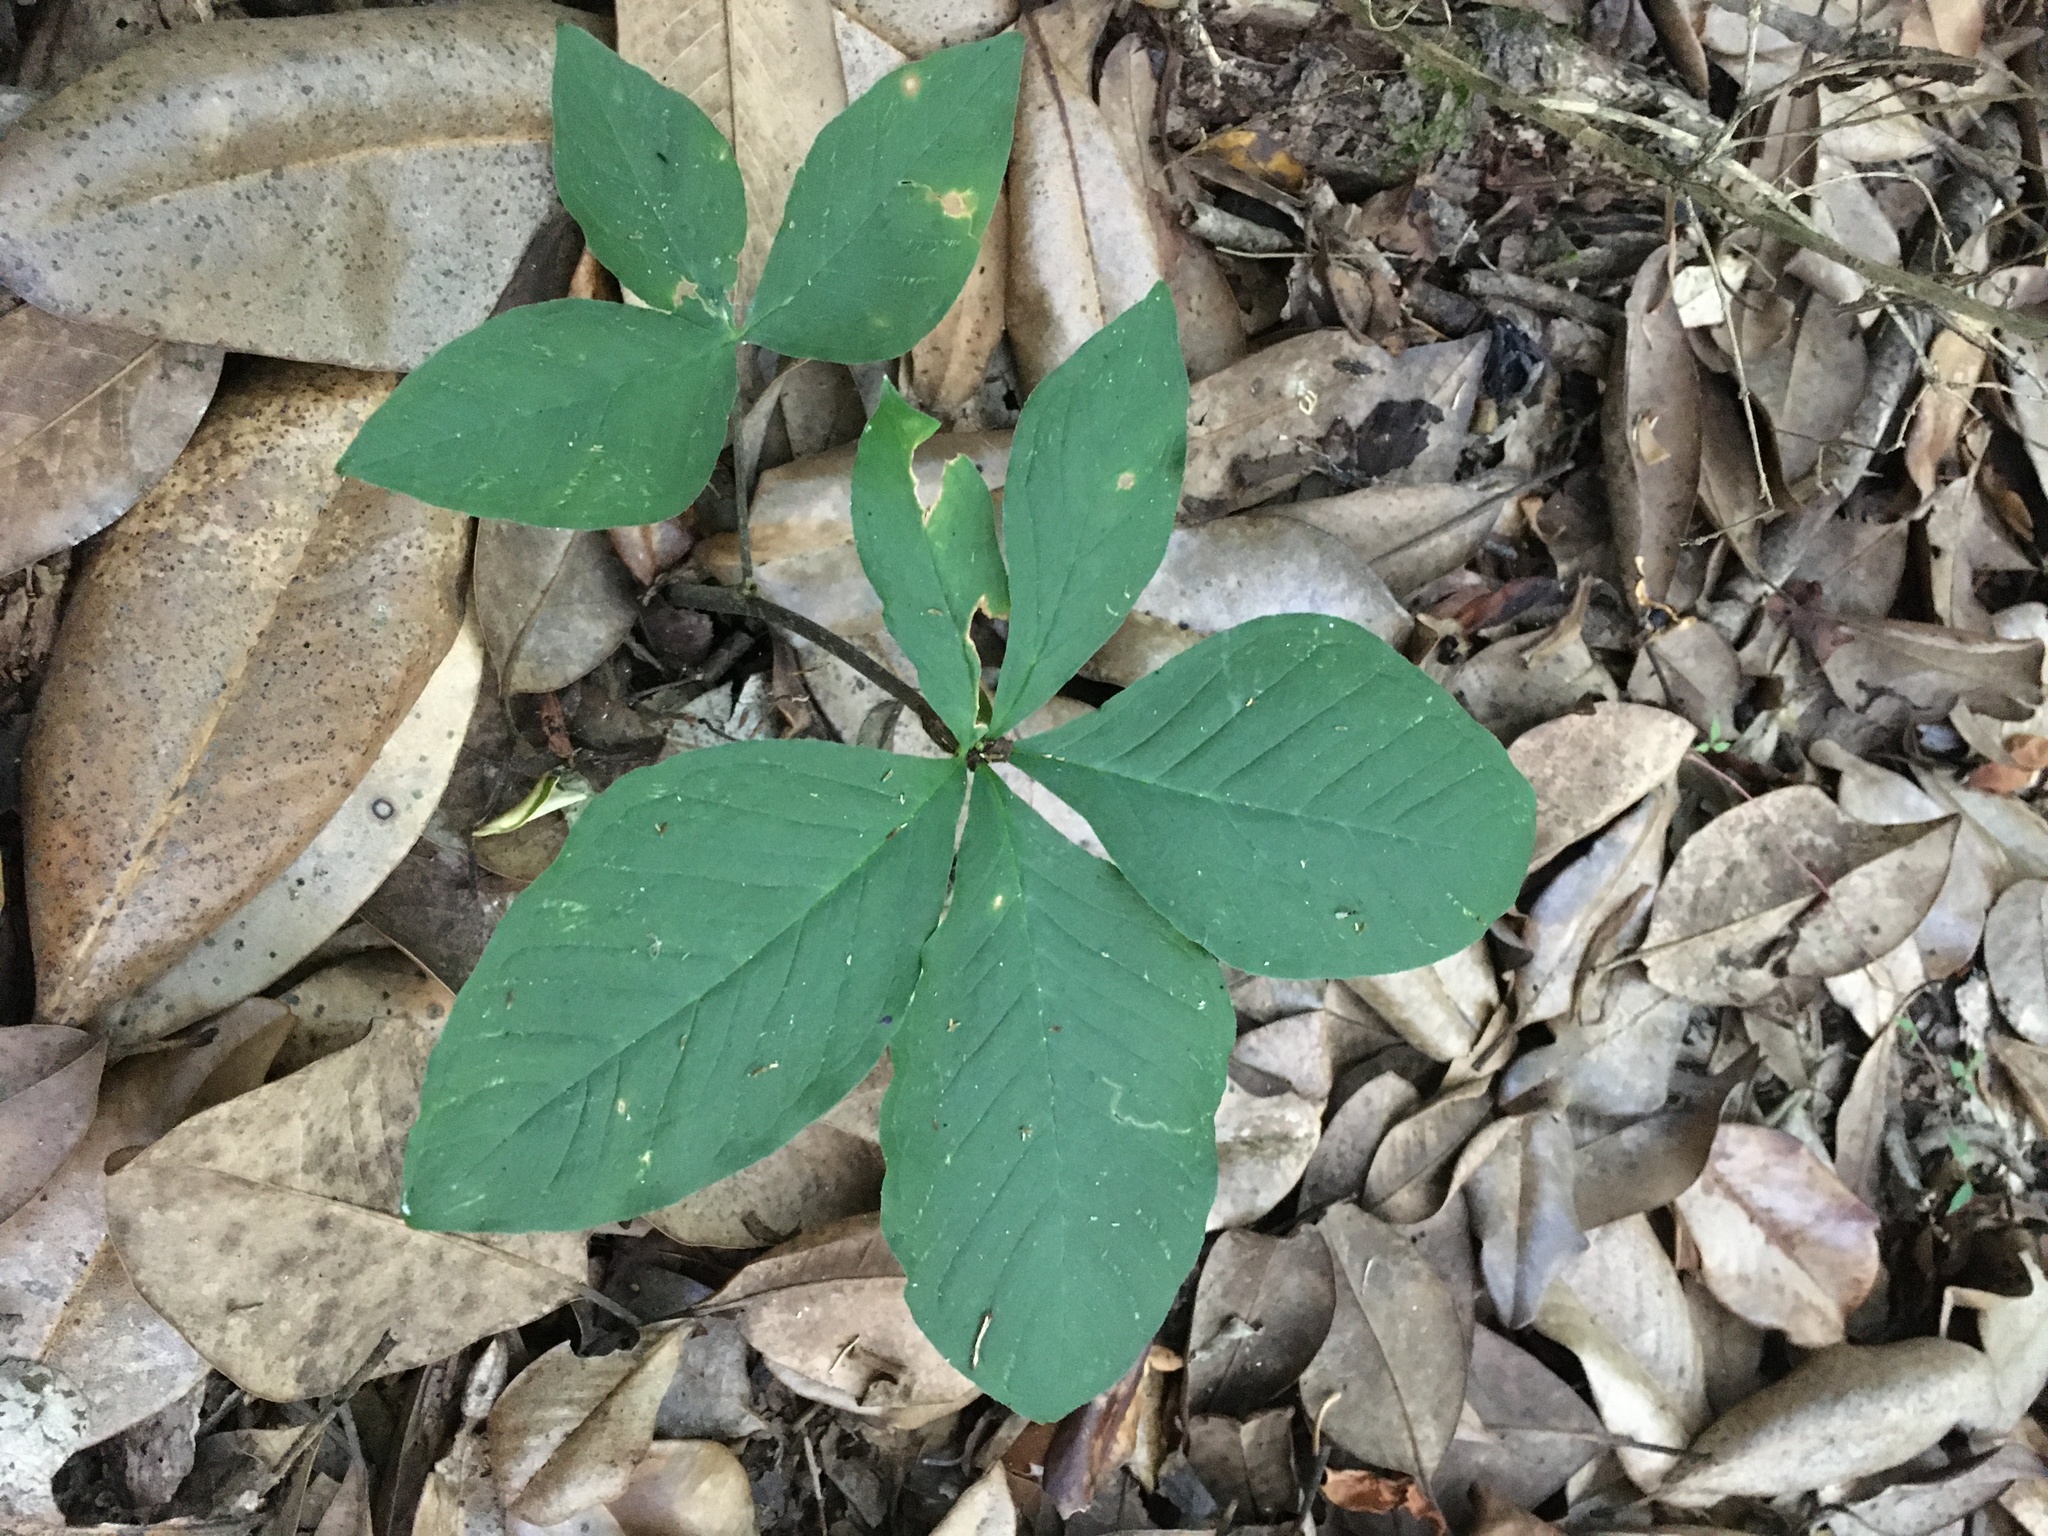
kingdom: Plantae
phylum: Tracheophyta
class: Liliopsida
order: Alismatales
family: Araceae
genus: Arisaema
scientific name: Arisaema quinatum
